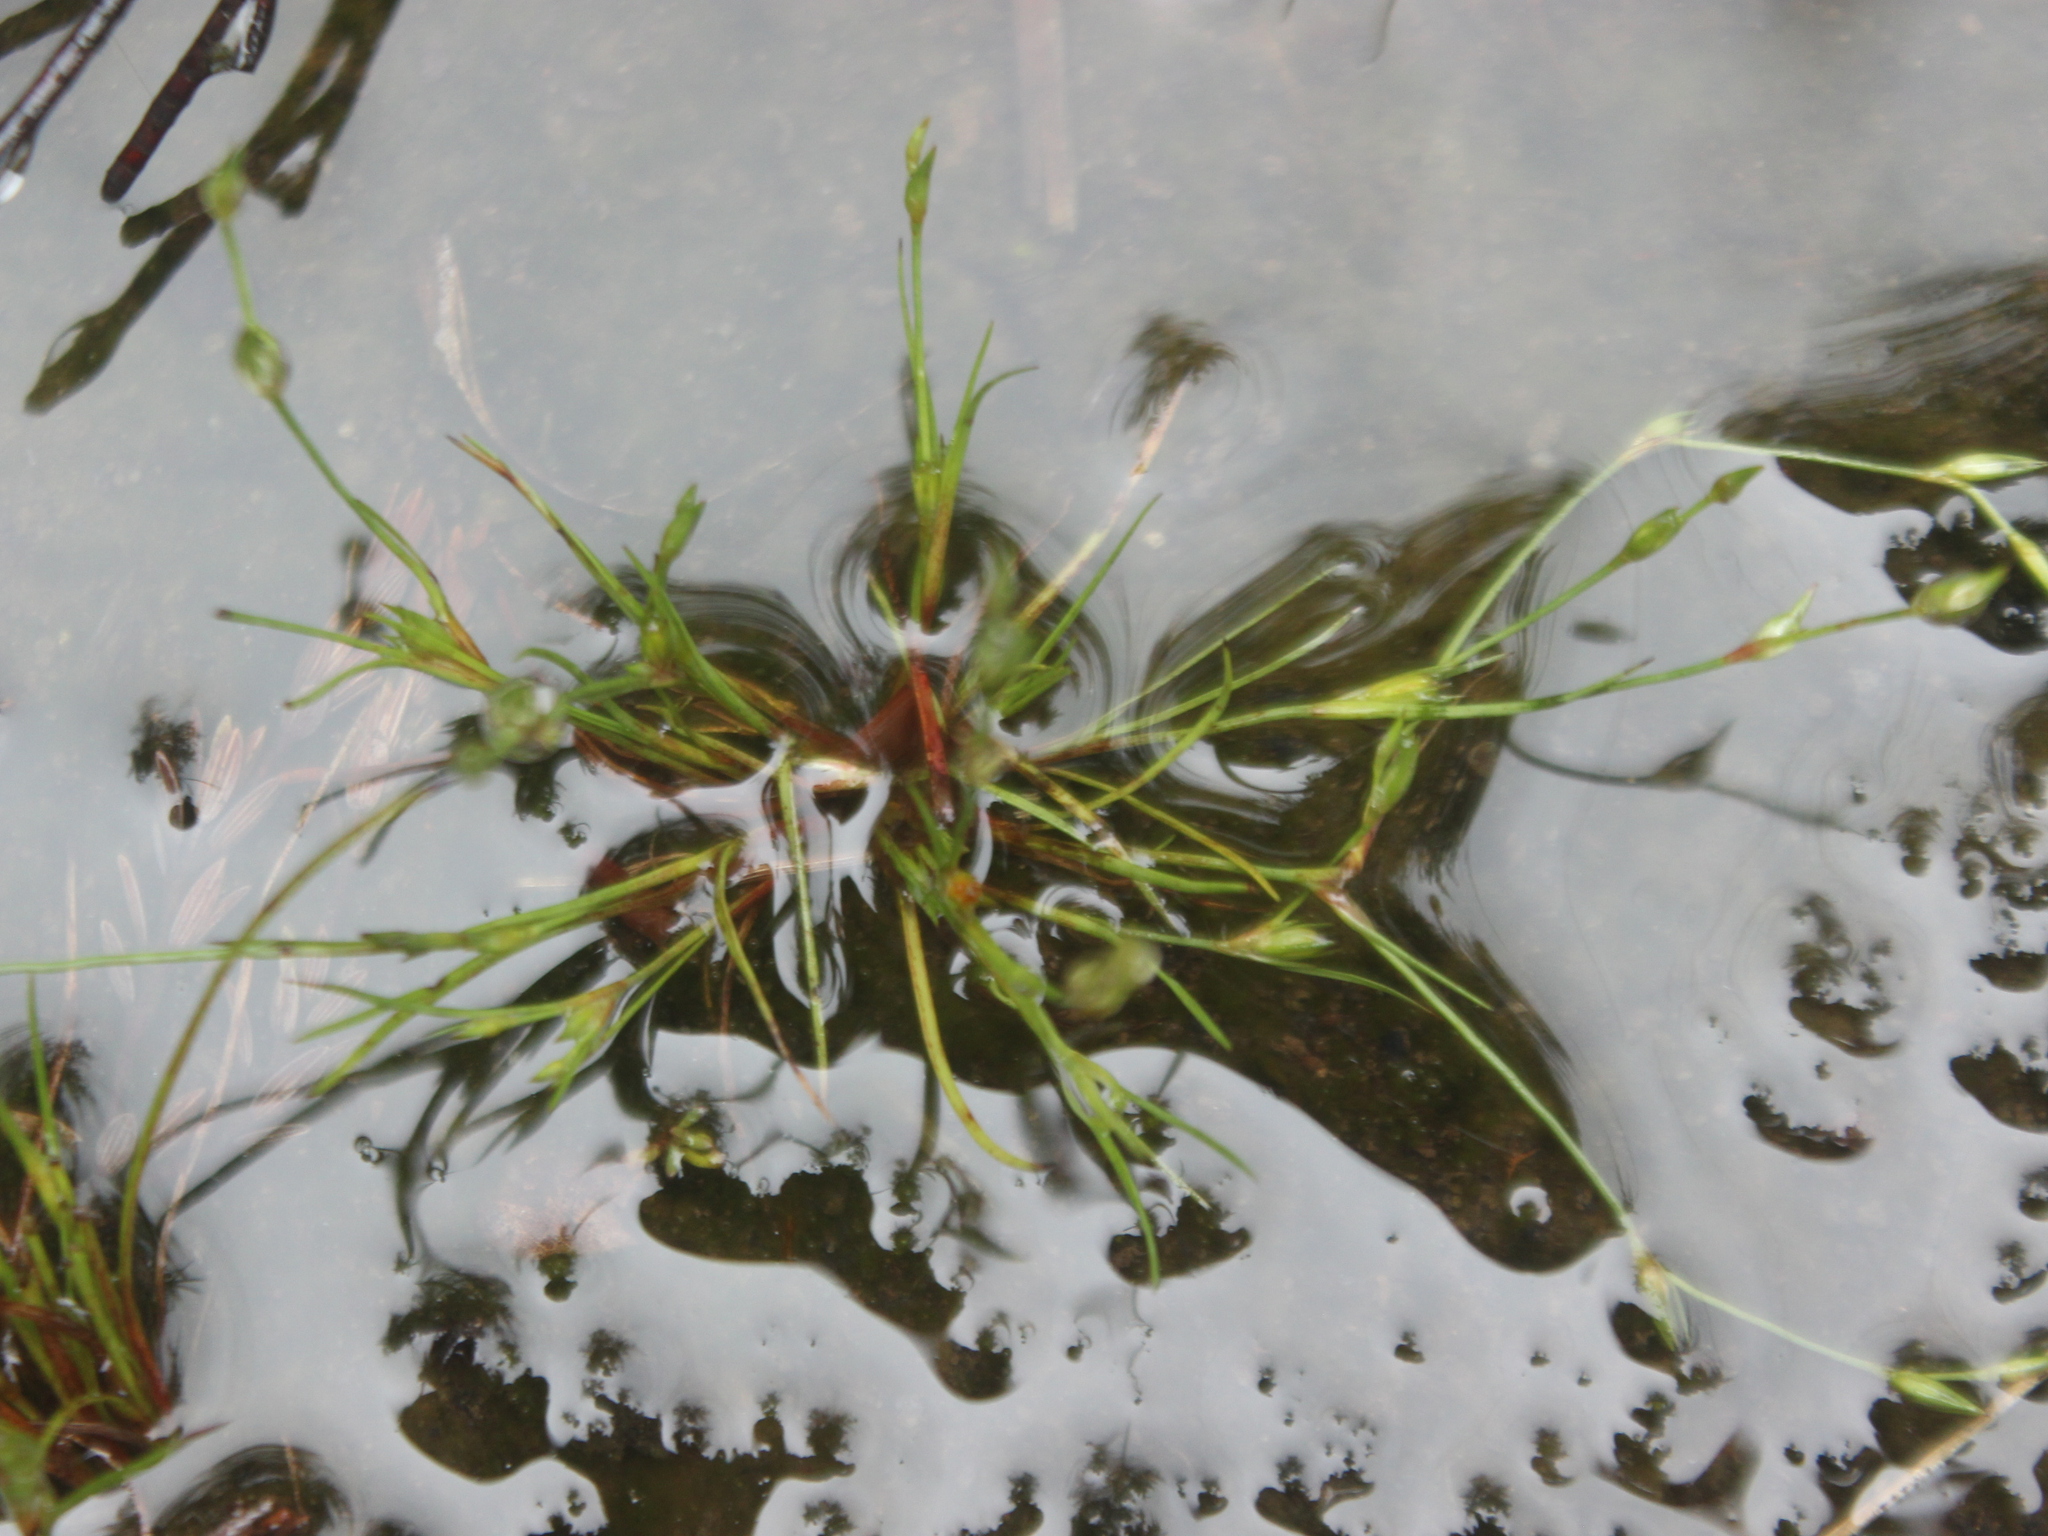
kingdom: Plantae
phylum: Tracheophyta
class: Liliopsida
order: Poales
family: Juncaceae
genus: Juncus
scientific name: Juncus bufonius
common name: Toad rush
